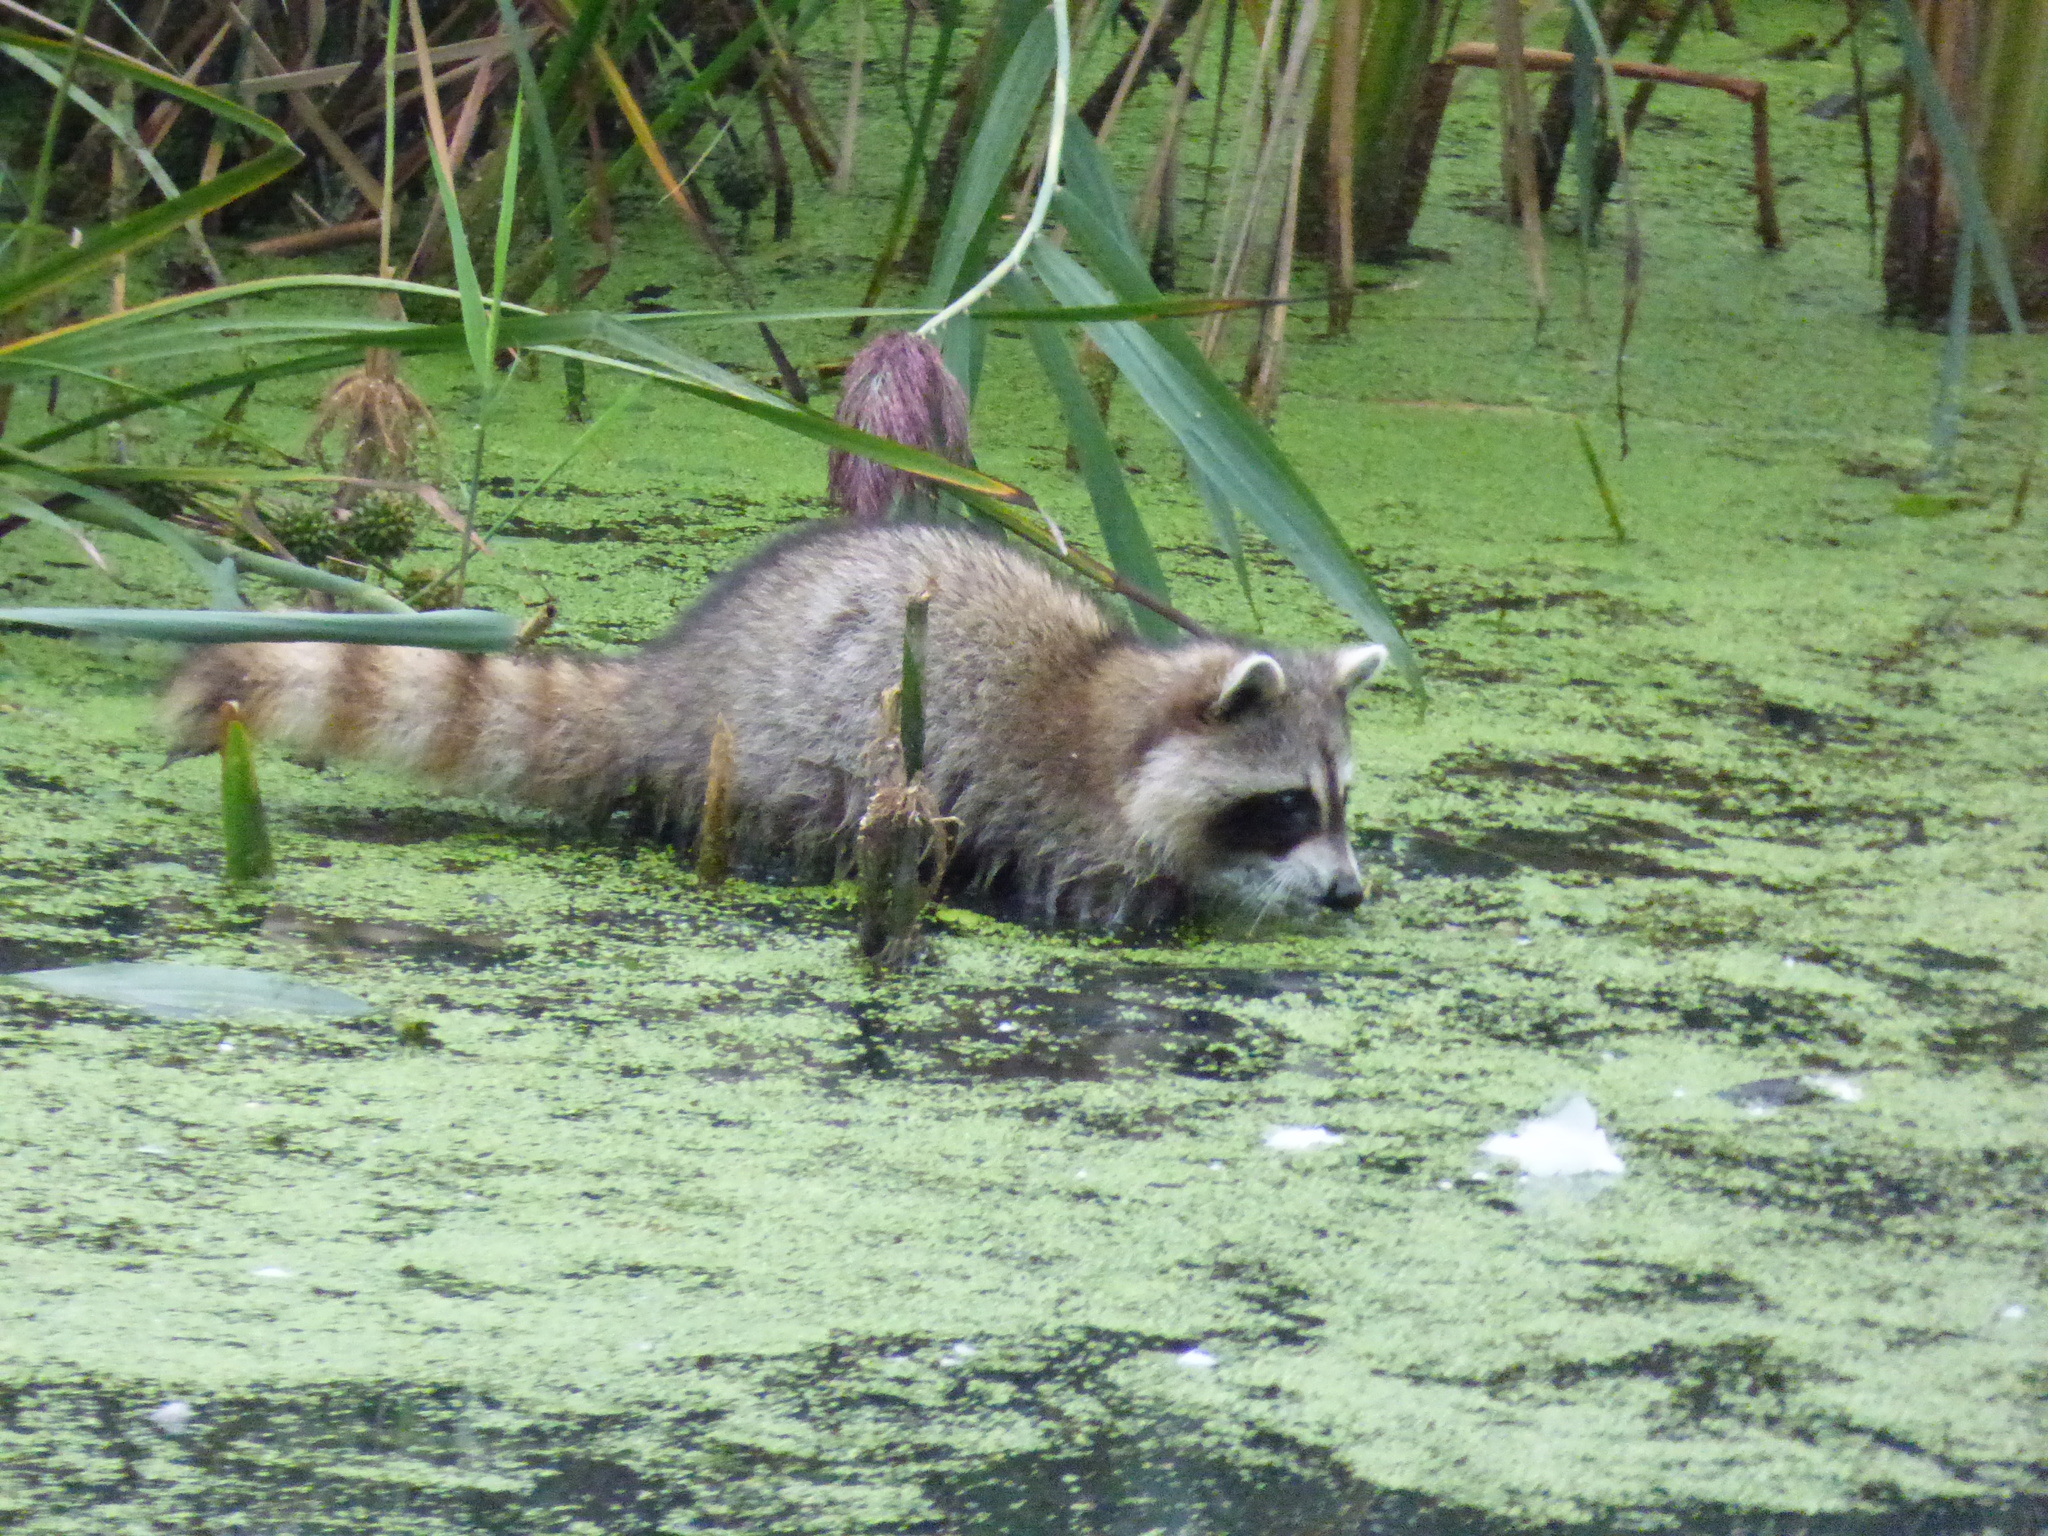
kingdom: Animalia
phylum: Chordata
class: Mammalia
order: Carnivora
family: Procyonidae
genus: Procyon
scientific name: Procyon lotor
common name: Raccoon
